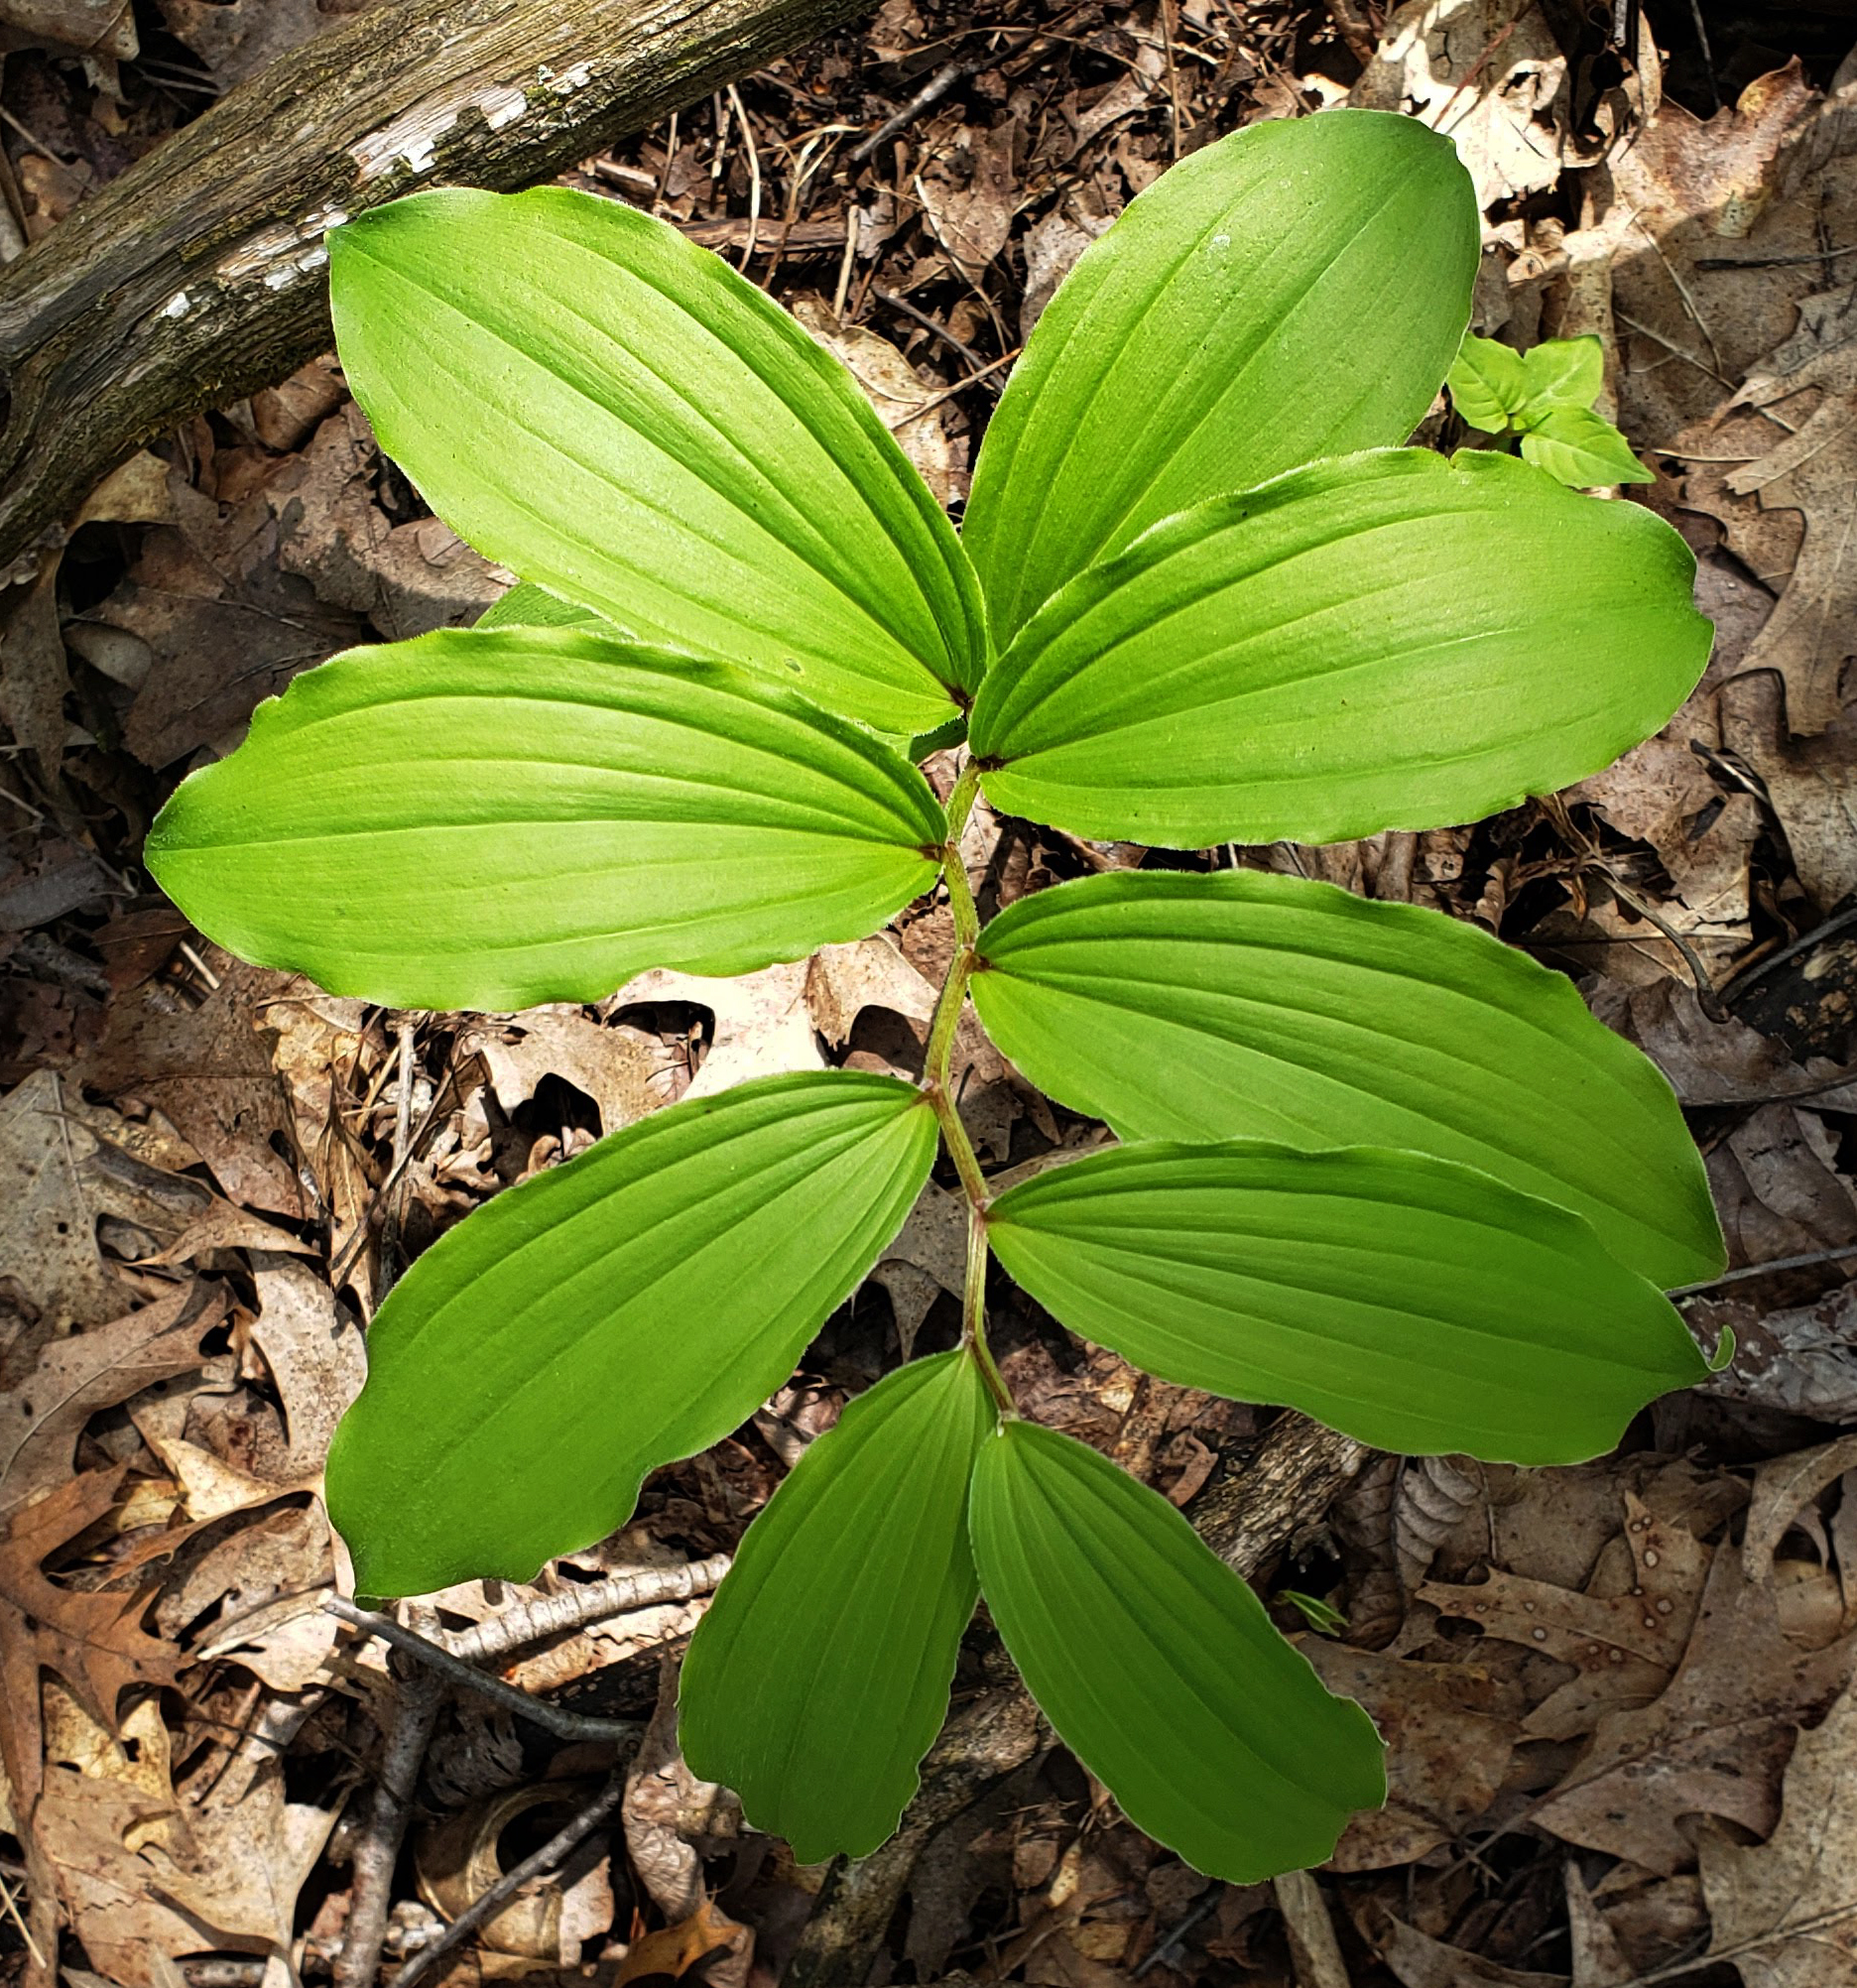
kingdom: Plantae
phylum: Tracheophyta
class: Liliopsida
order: Asparagales
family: Asparagaceae
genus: Maianthemum
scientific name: Maianthemum racemosum
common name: False spikenard
